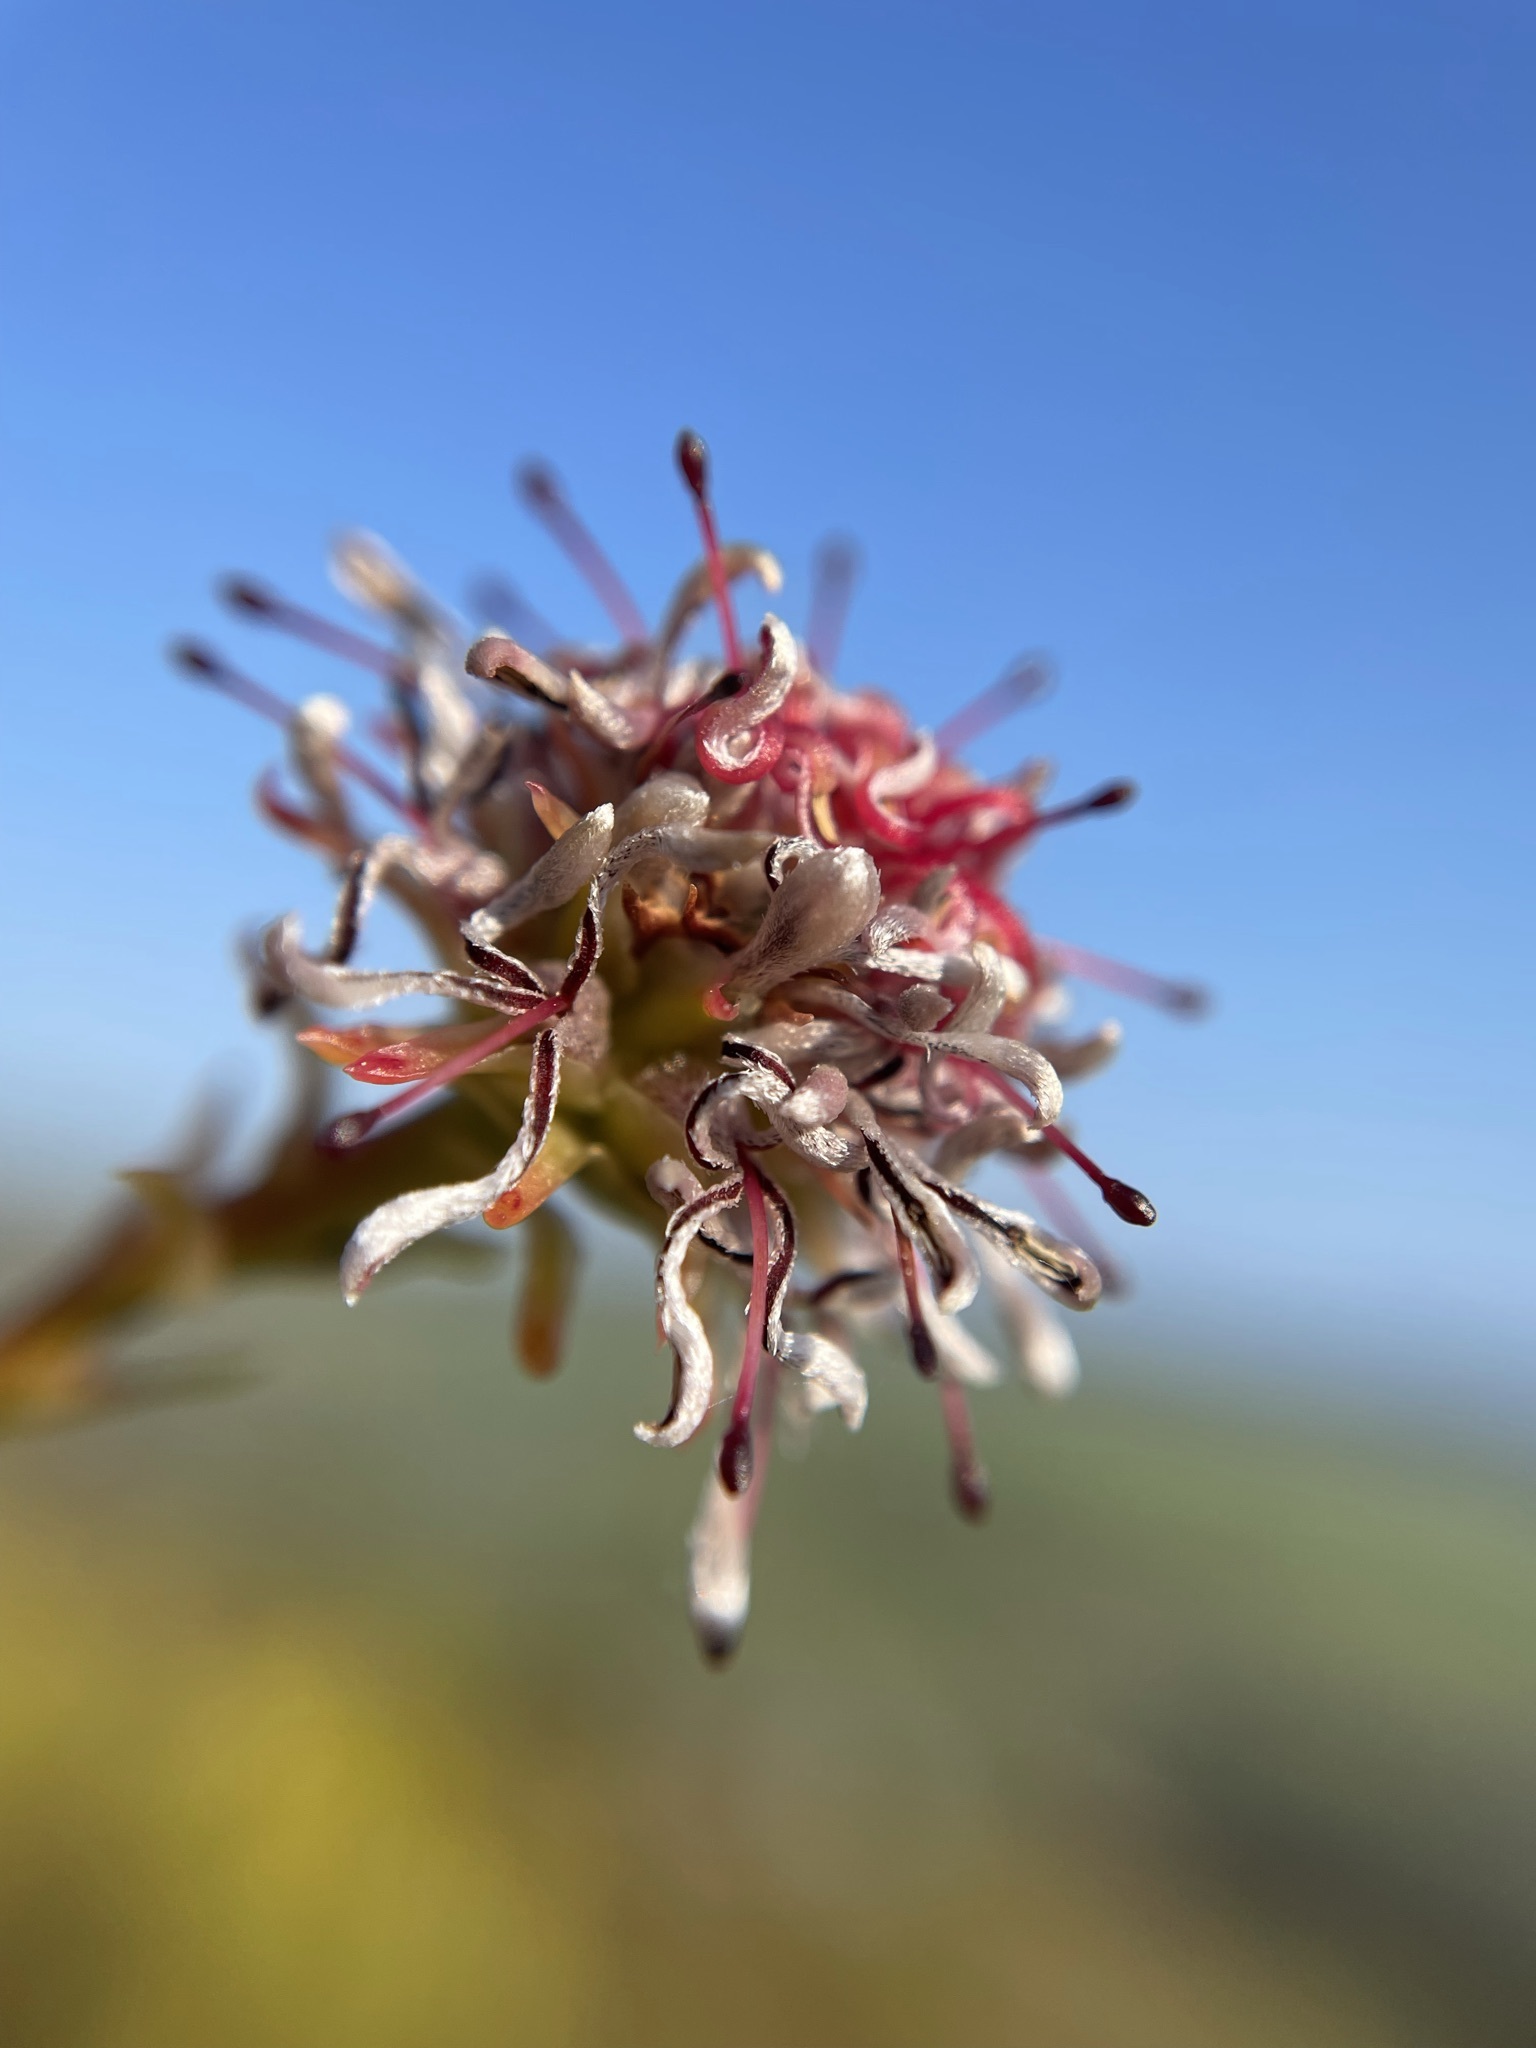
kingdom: Plantae
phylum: Tracheophyta
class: Magnoliopsida
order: Proteales
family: Proteaceae
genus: Serruria
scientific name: Serruria elongata
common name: Long-stalk spiderhead
